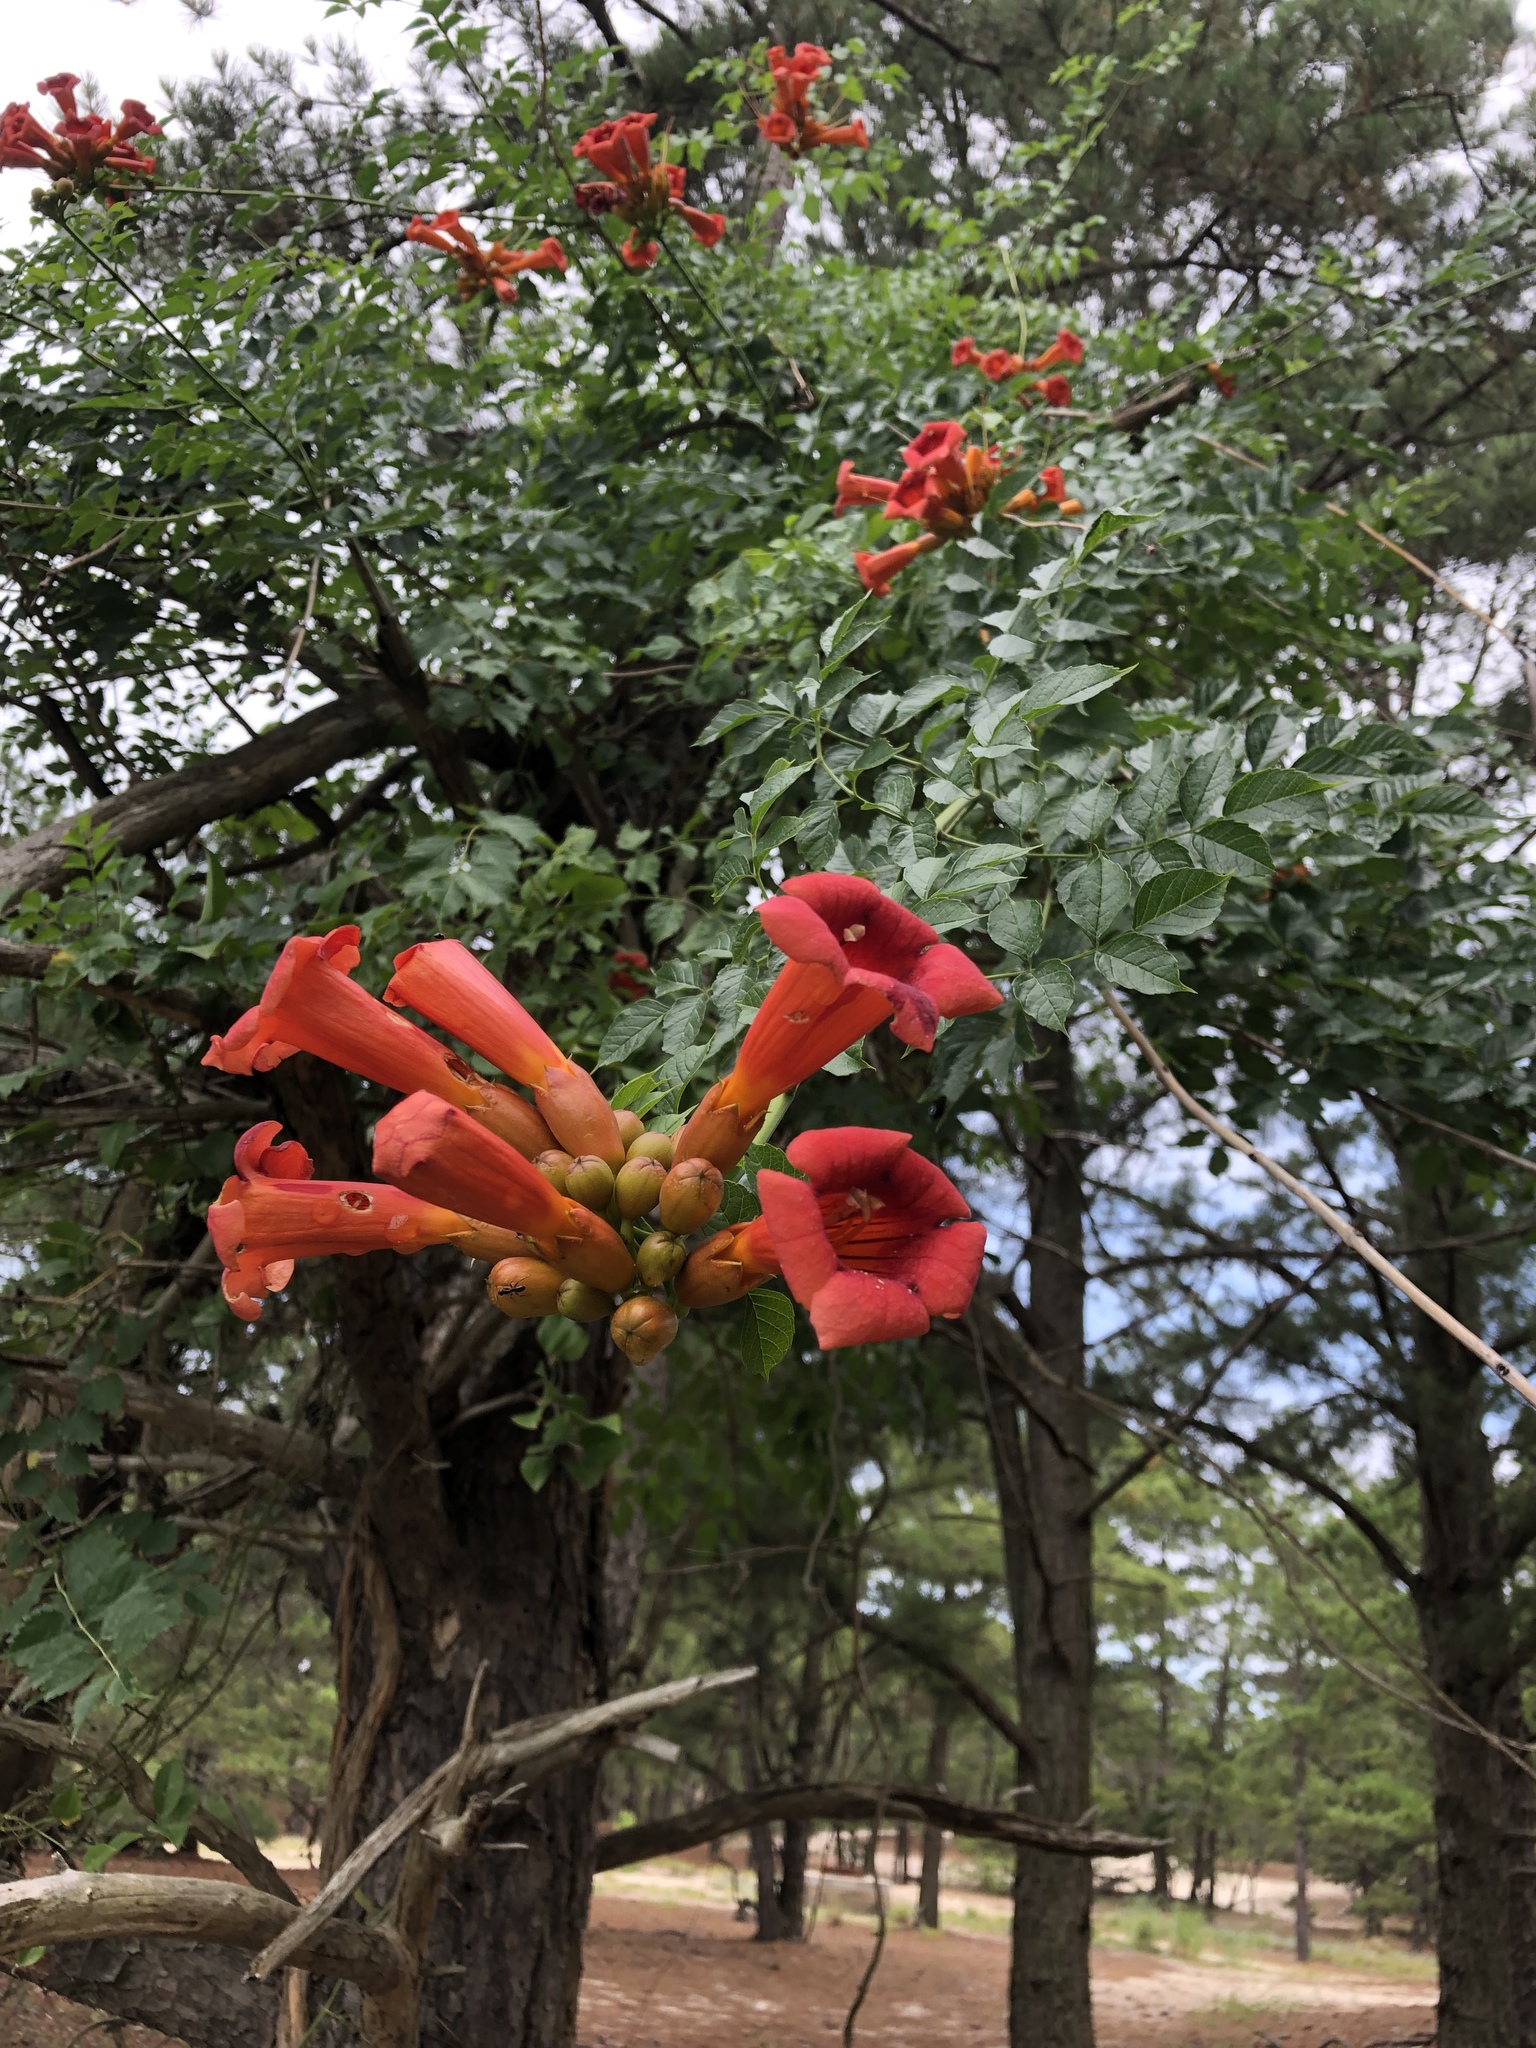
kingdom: Plantae
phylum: Tracheophyta
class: Magnoliopsida
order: Lamiales
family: Bignoniaceae
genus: Campsis
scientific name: Campsis radicans
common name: Trumpet-creeper
